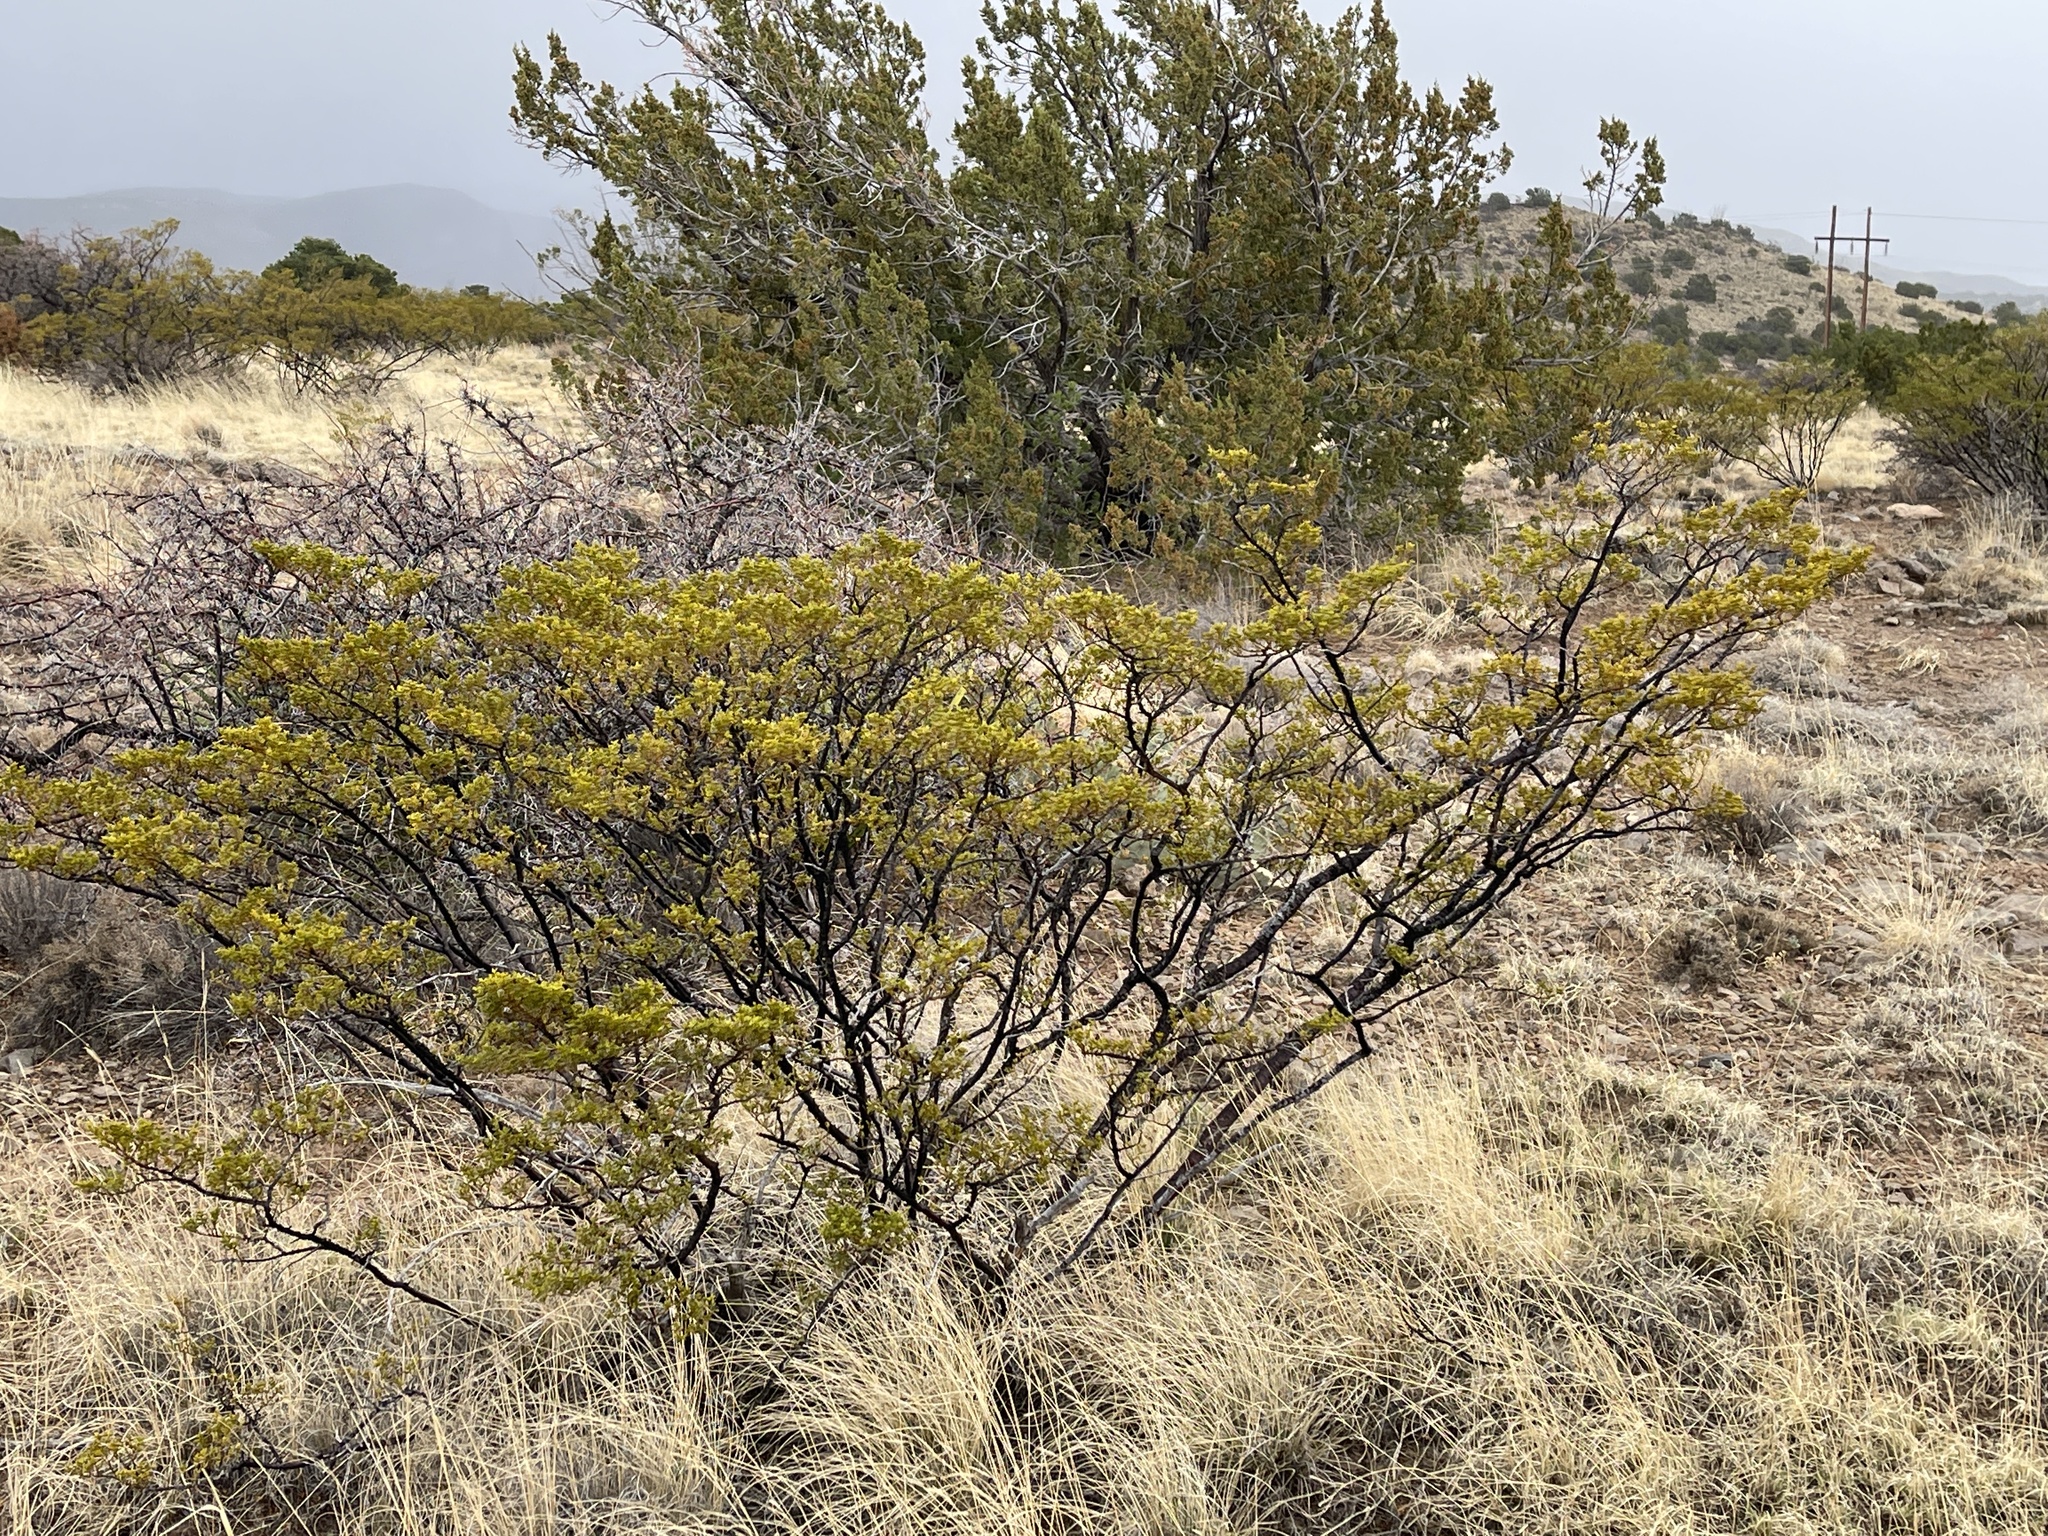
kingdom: Plantae
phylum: Tracheophyta
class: Magnoliopsida
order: Zygophyllales
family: Zygophyllaceae
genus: Larrea
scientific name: Larrea tridentata
